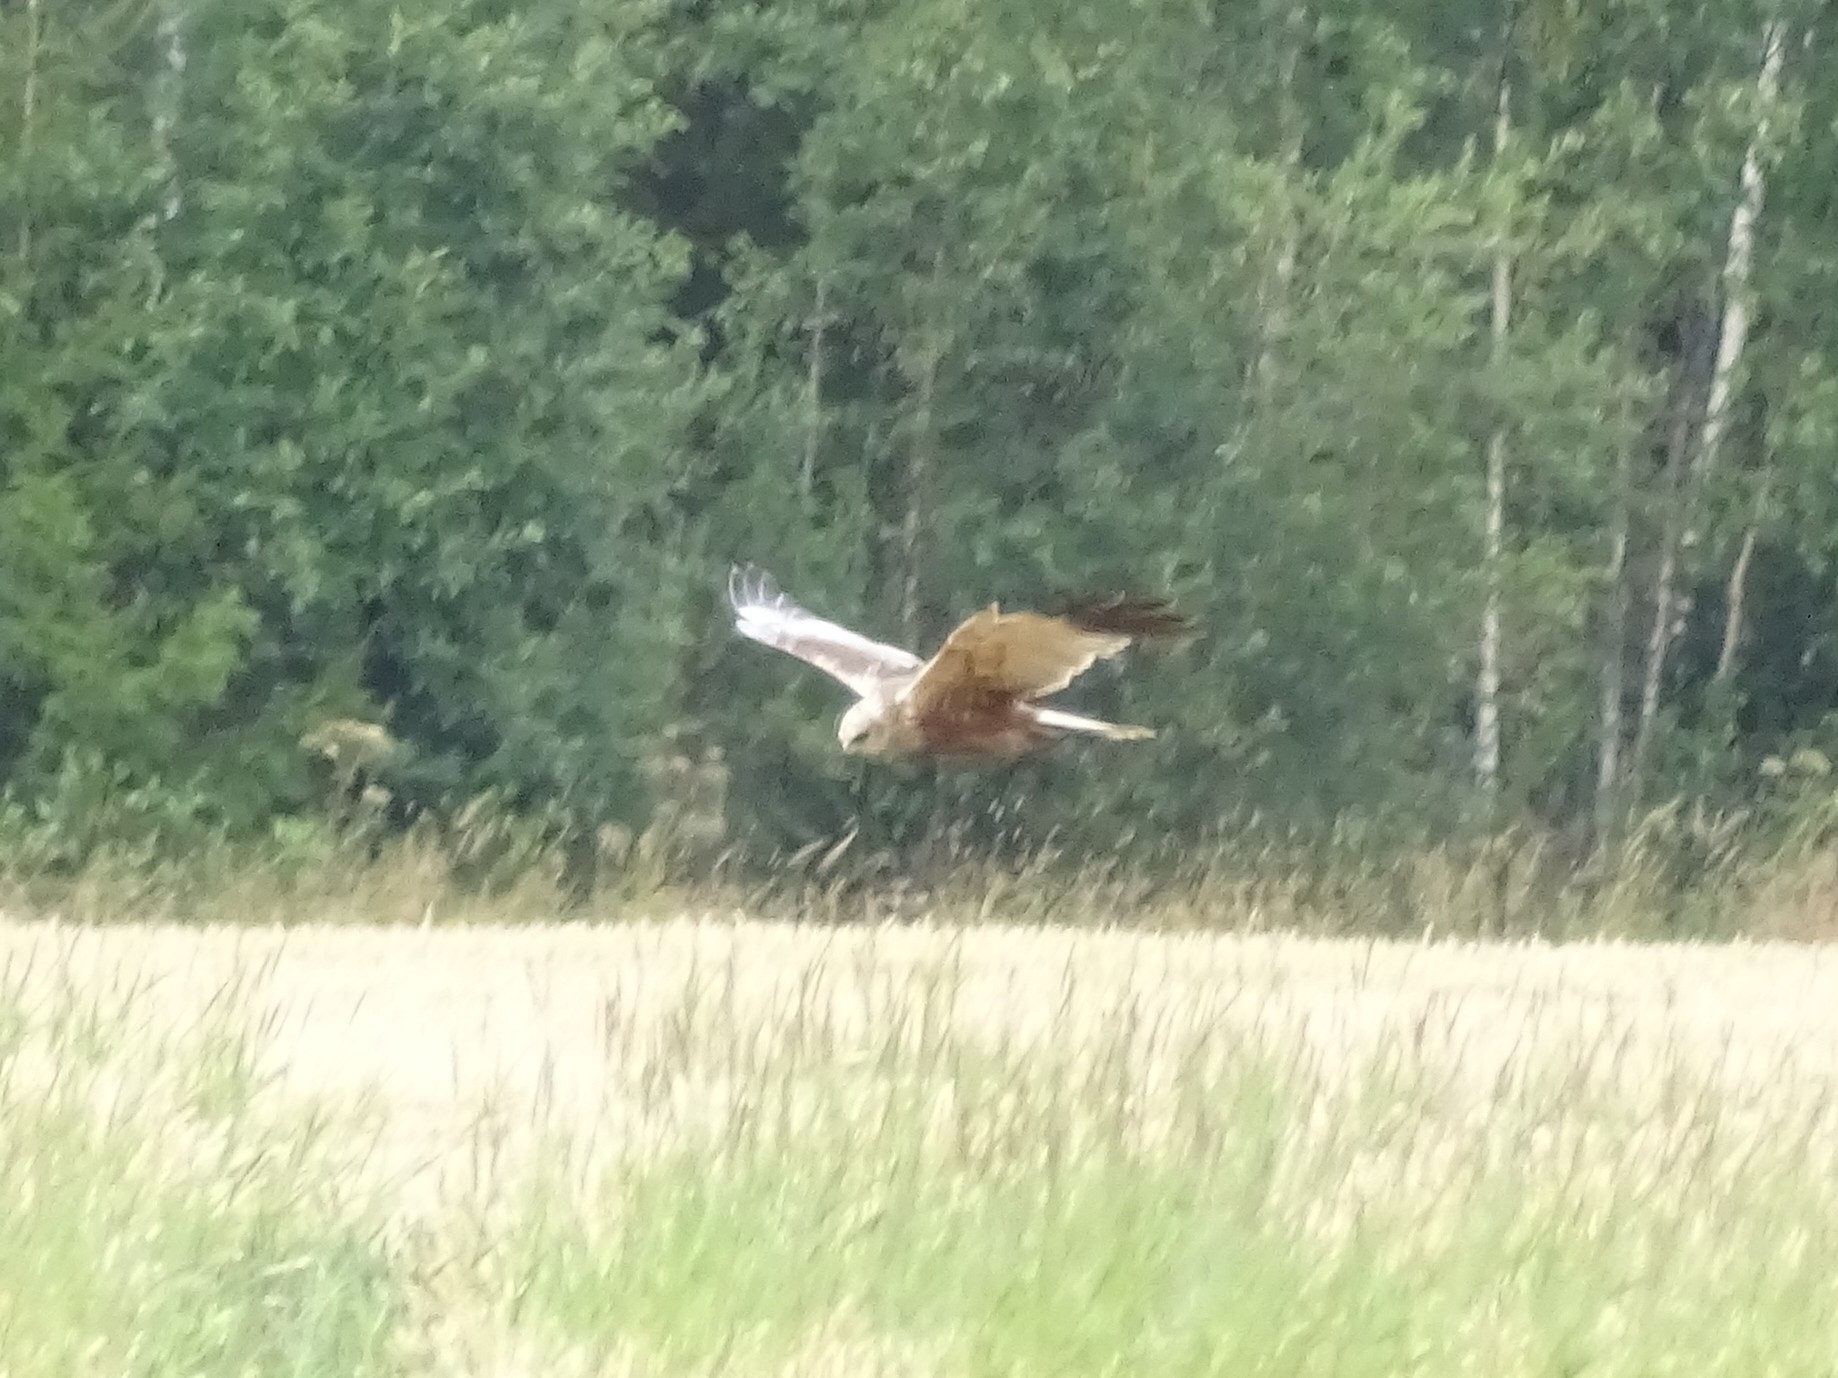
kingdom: Animalia
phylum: Chordata
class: Aves
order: Accipitriformes
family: Accipitridae
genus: Circus
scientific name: Circus aeruginosus
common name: Western marsh harrier
